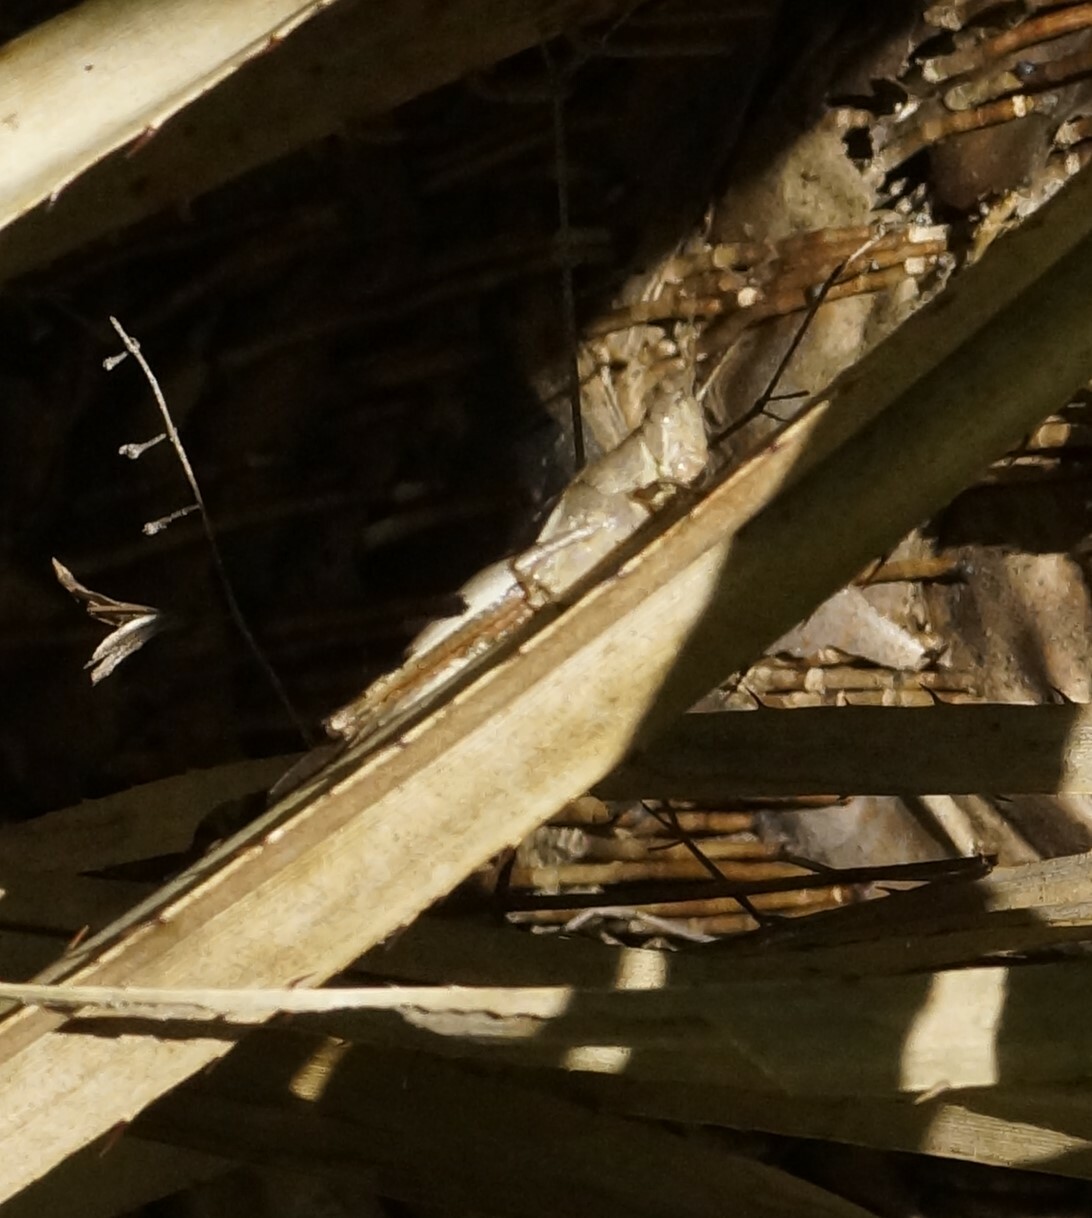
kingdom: Animalia
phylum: Arthropoda
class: Insecta
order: Orthoptera
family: Acrididae
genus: Stenocatantops
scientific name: Stenocatantops angustifrons
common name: Common tropical sharptail
